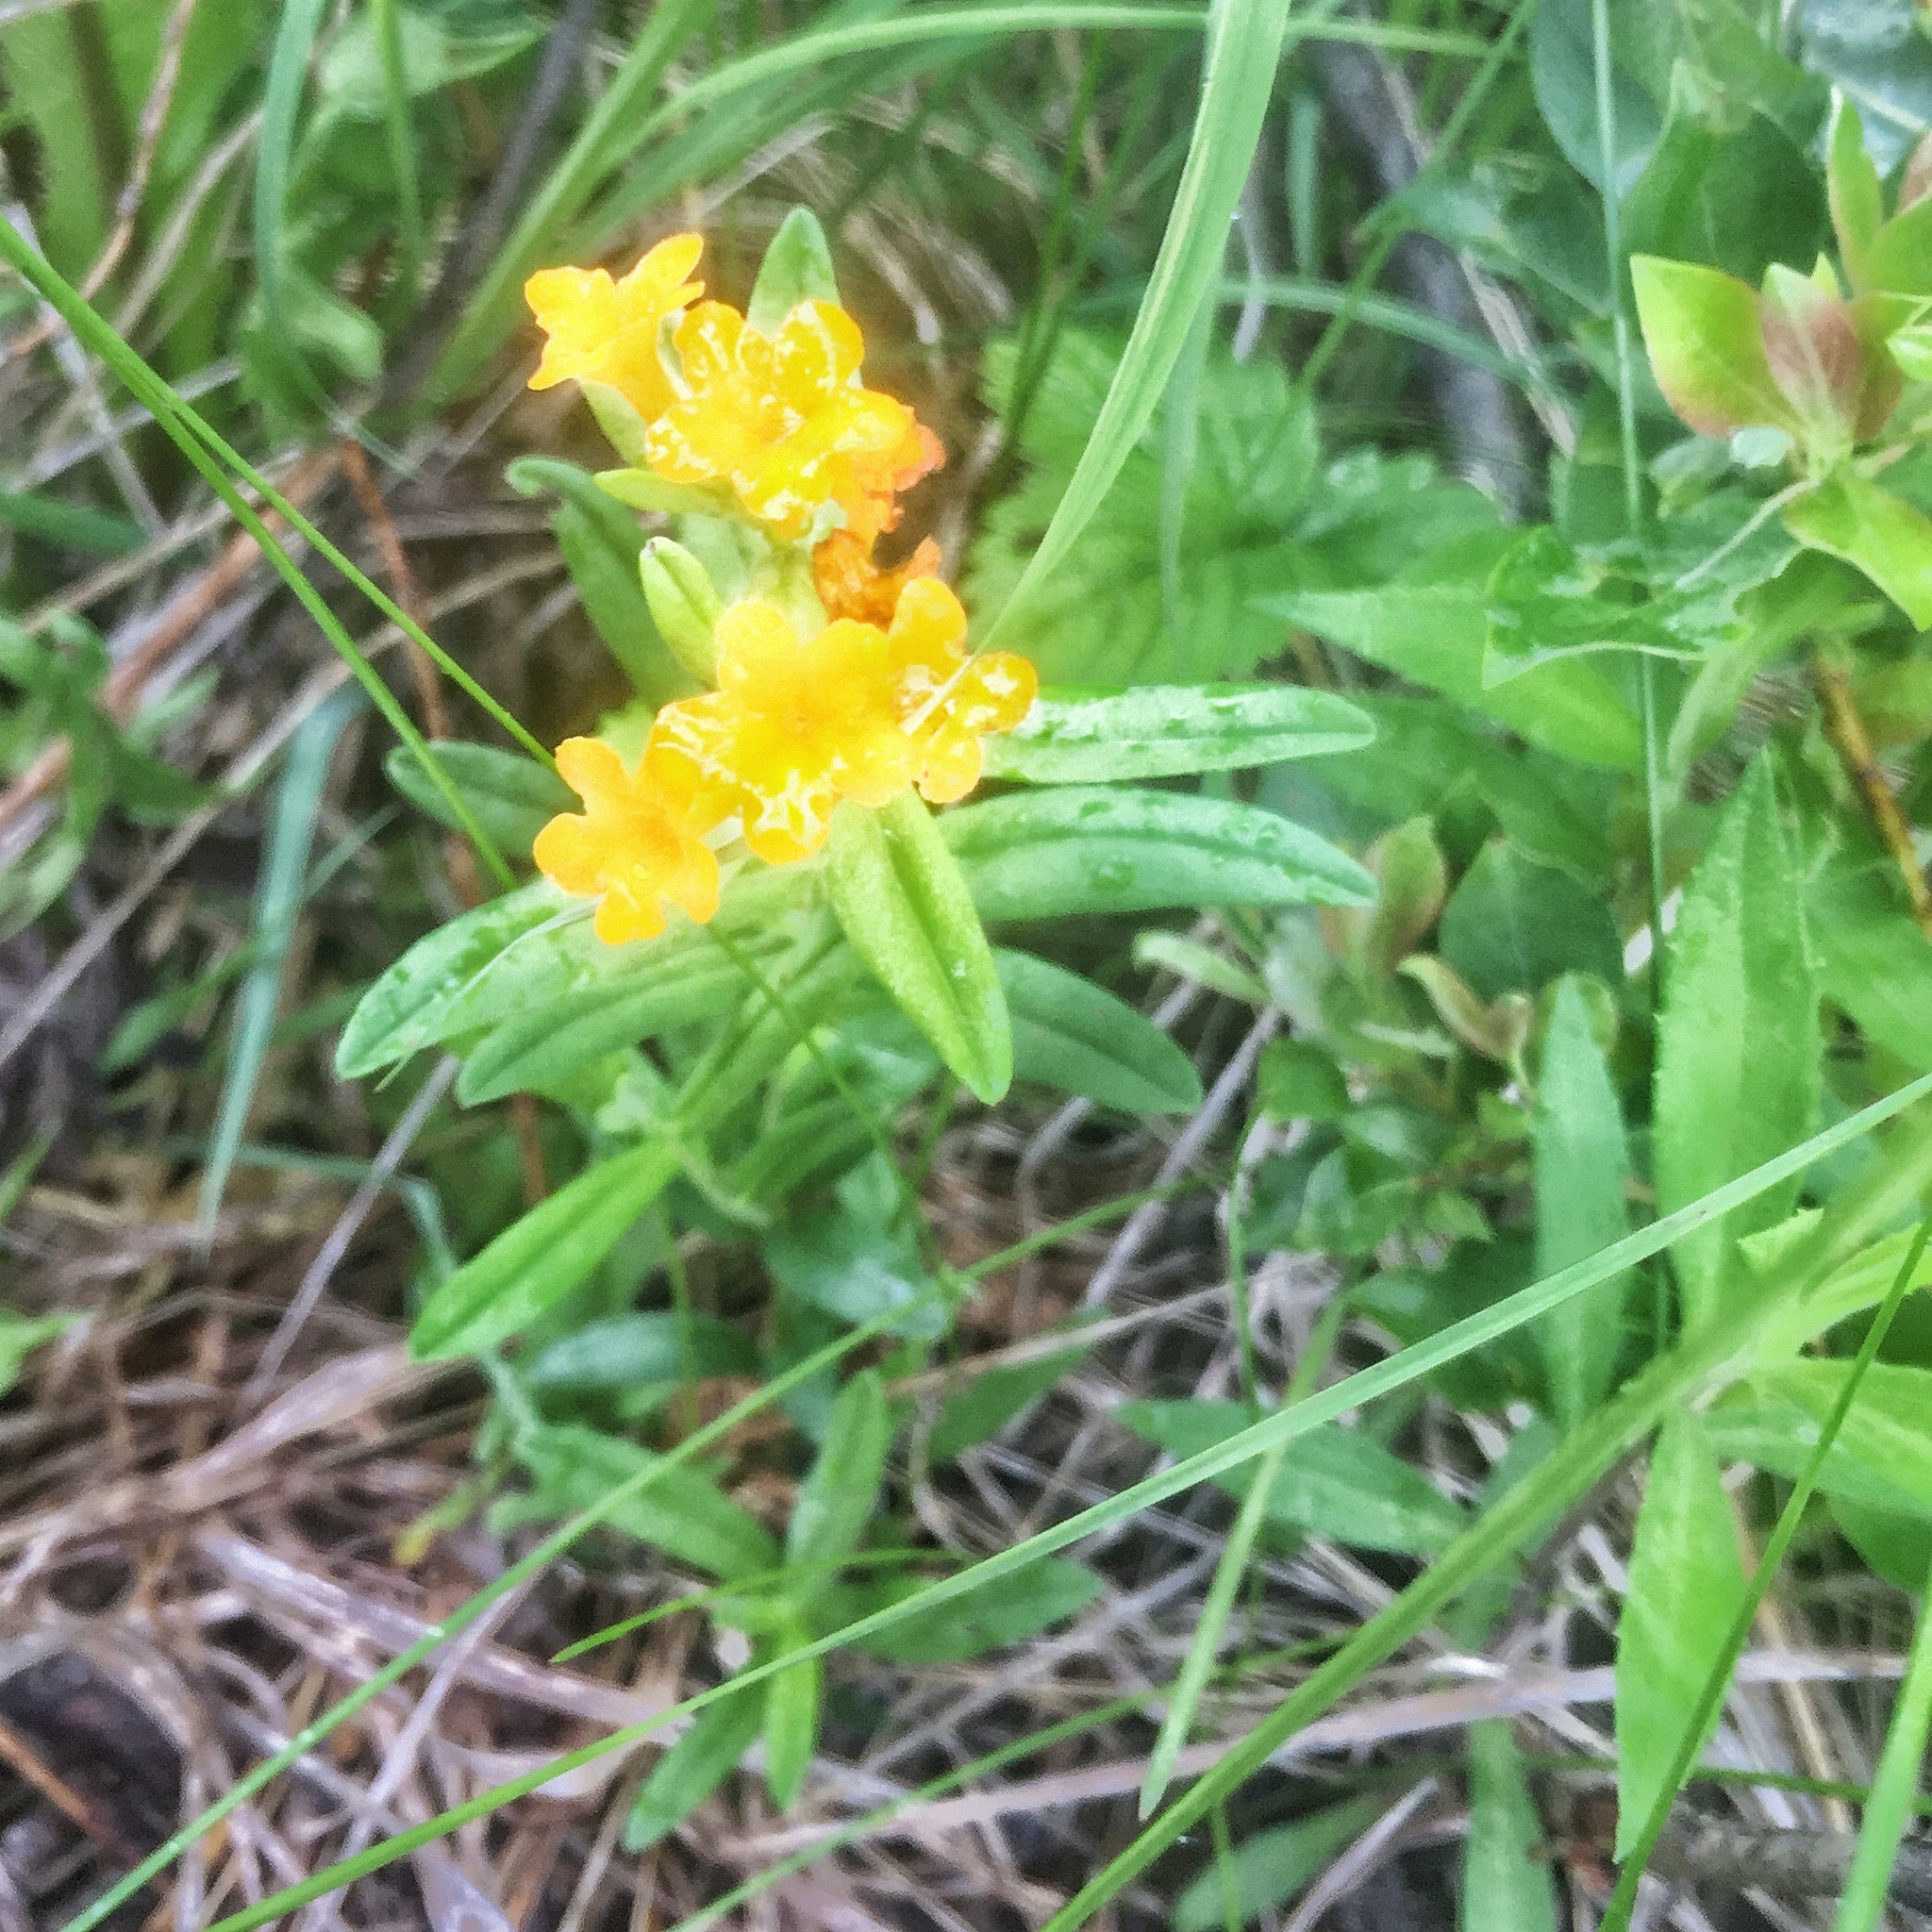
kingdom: Plantae
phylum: Tracheophyta
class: Magnoliopsida
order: Boraginales
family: Boraginaceae
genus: Lithospermum
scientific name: Lithospermum canescens
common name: Hoary puccoon
